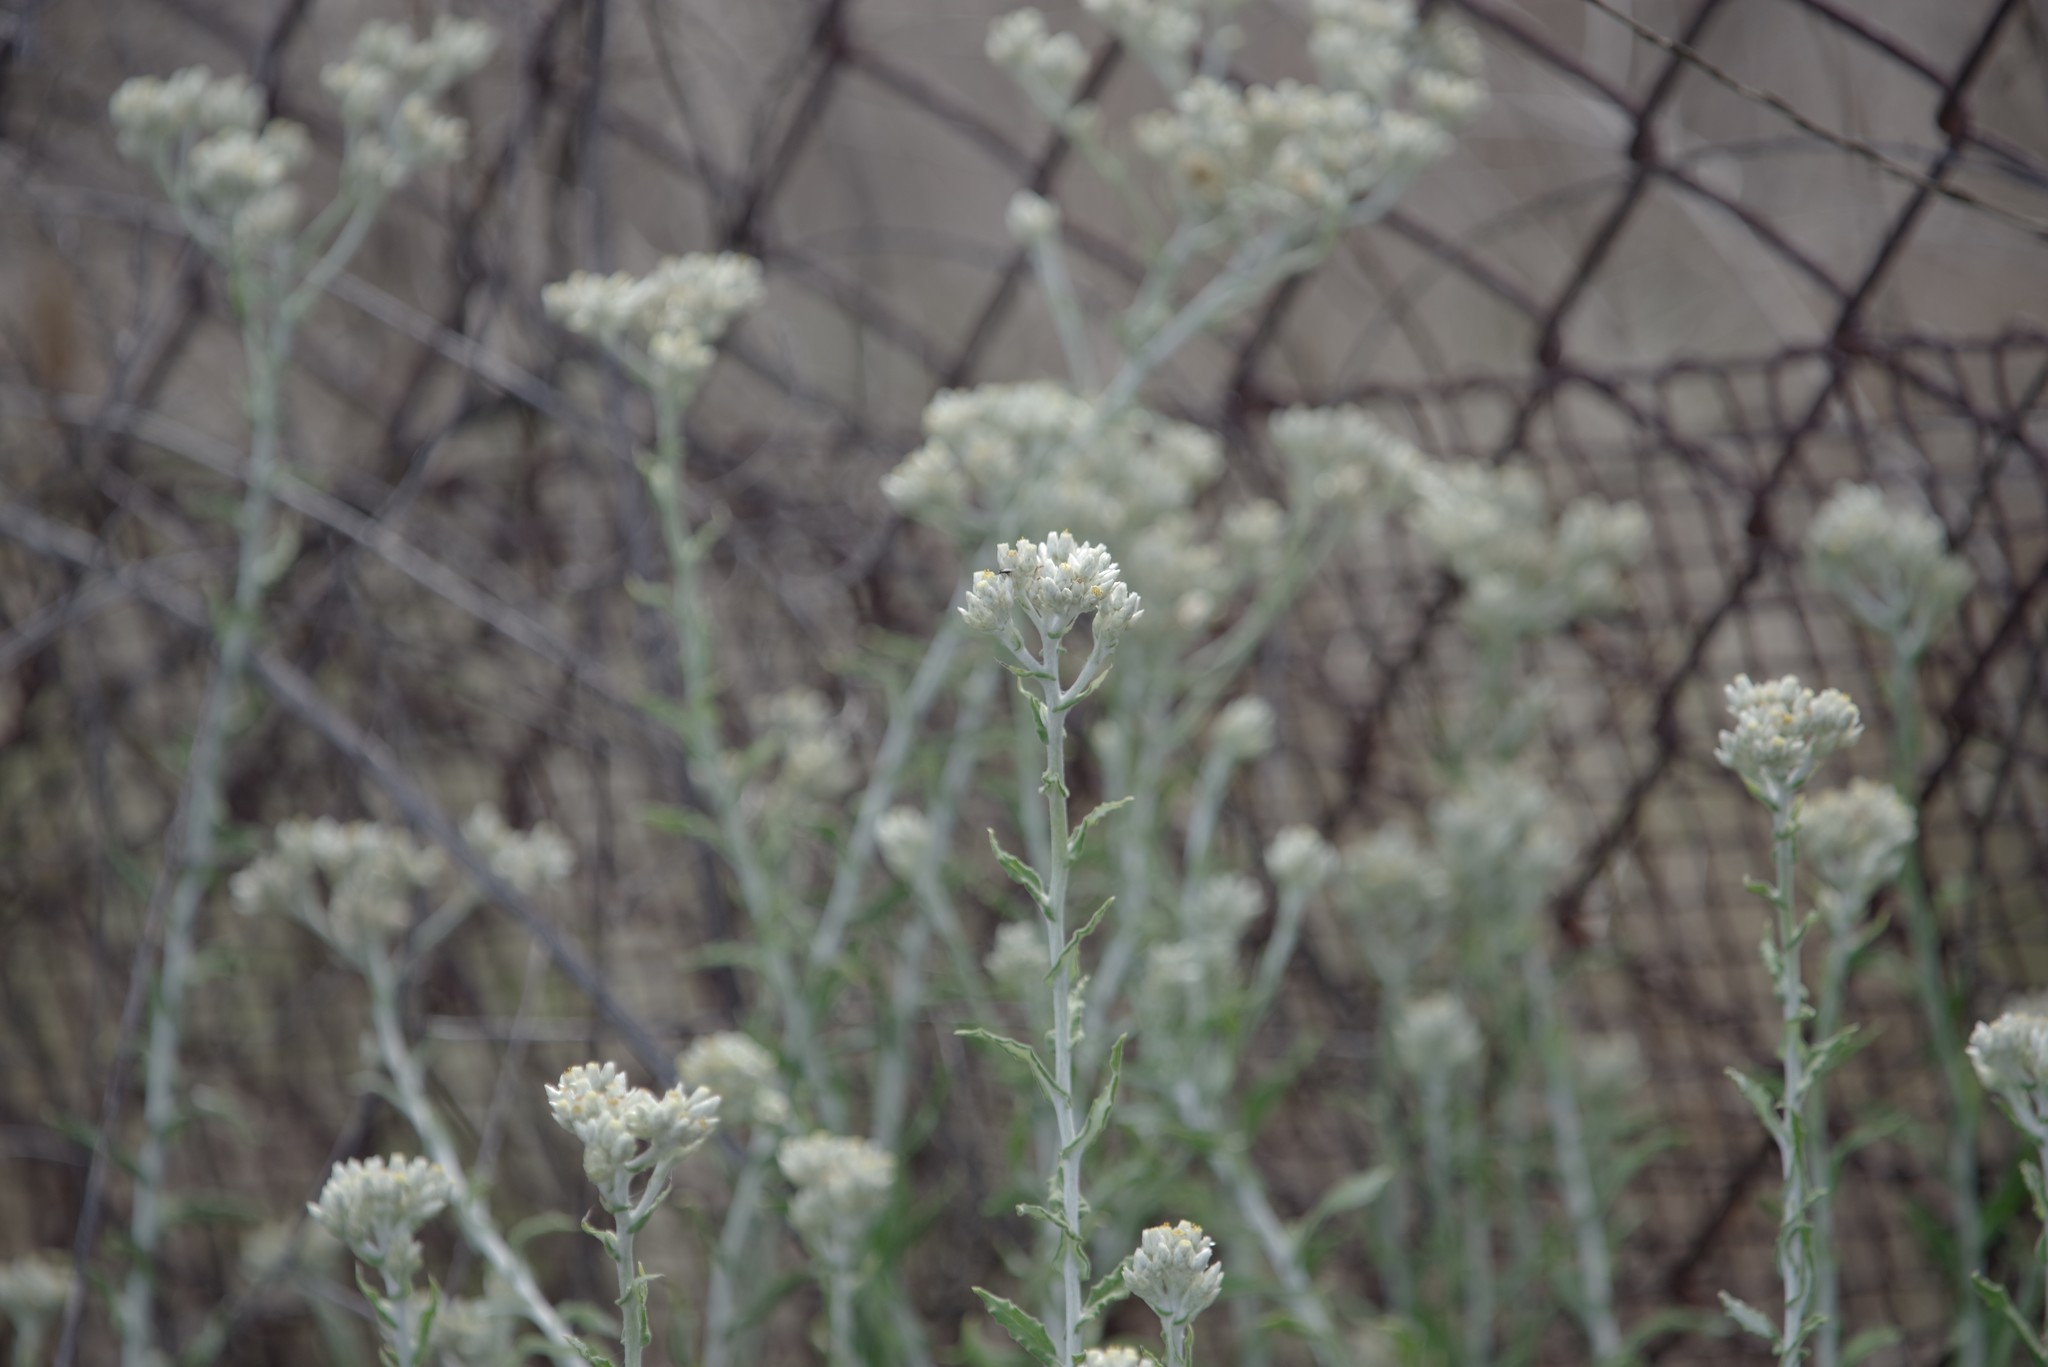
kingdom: Plantae
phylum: Tracheophyta
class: Magnoliopsida
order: Asterales
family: Asteraceae
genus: Pseudognaphalium
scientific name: Pseudognaphalium biolettii
